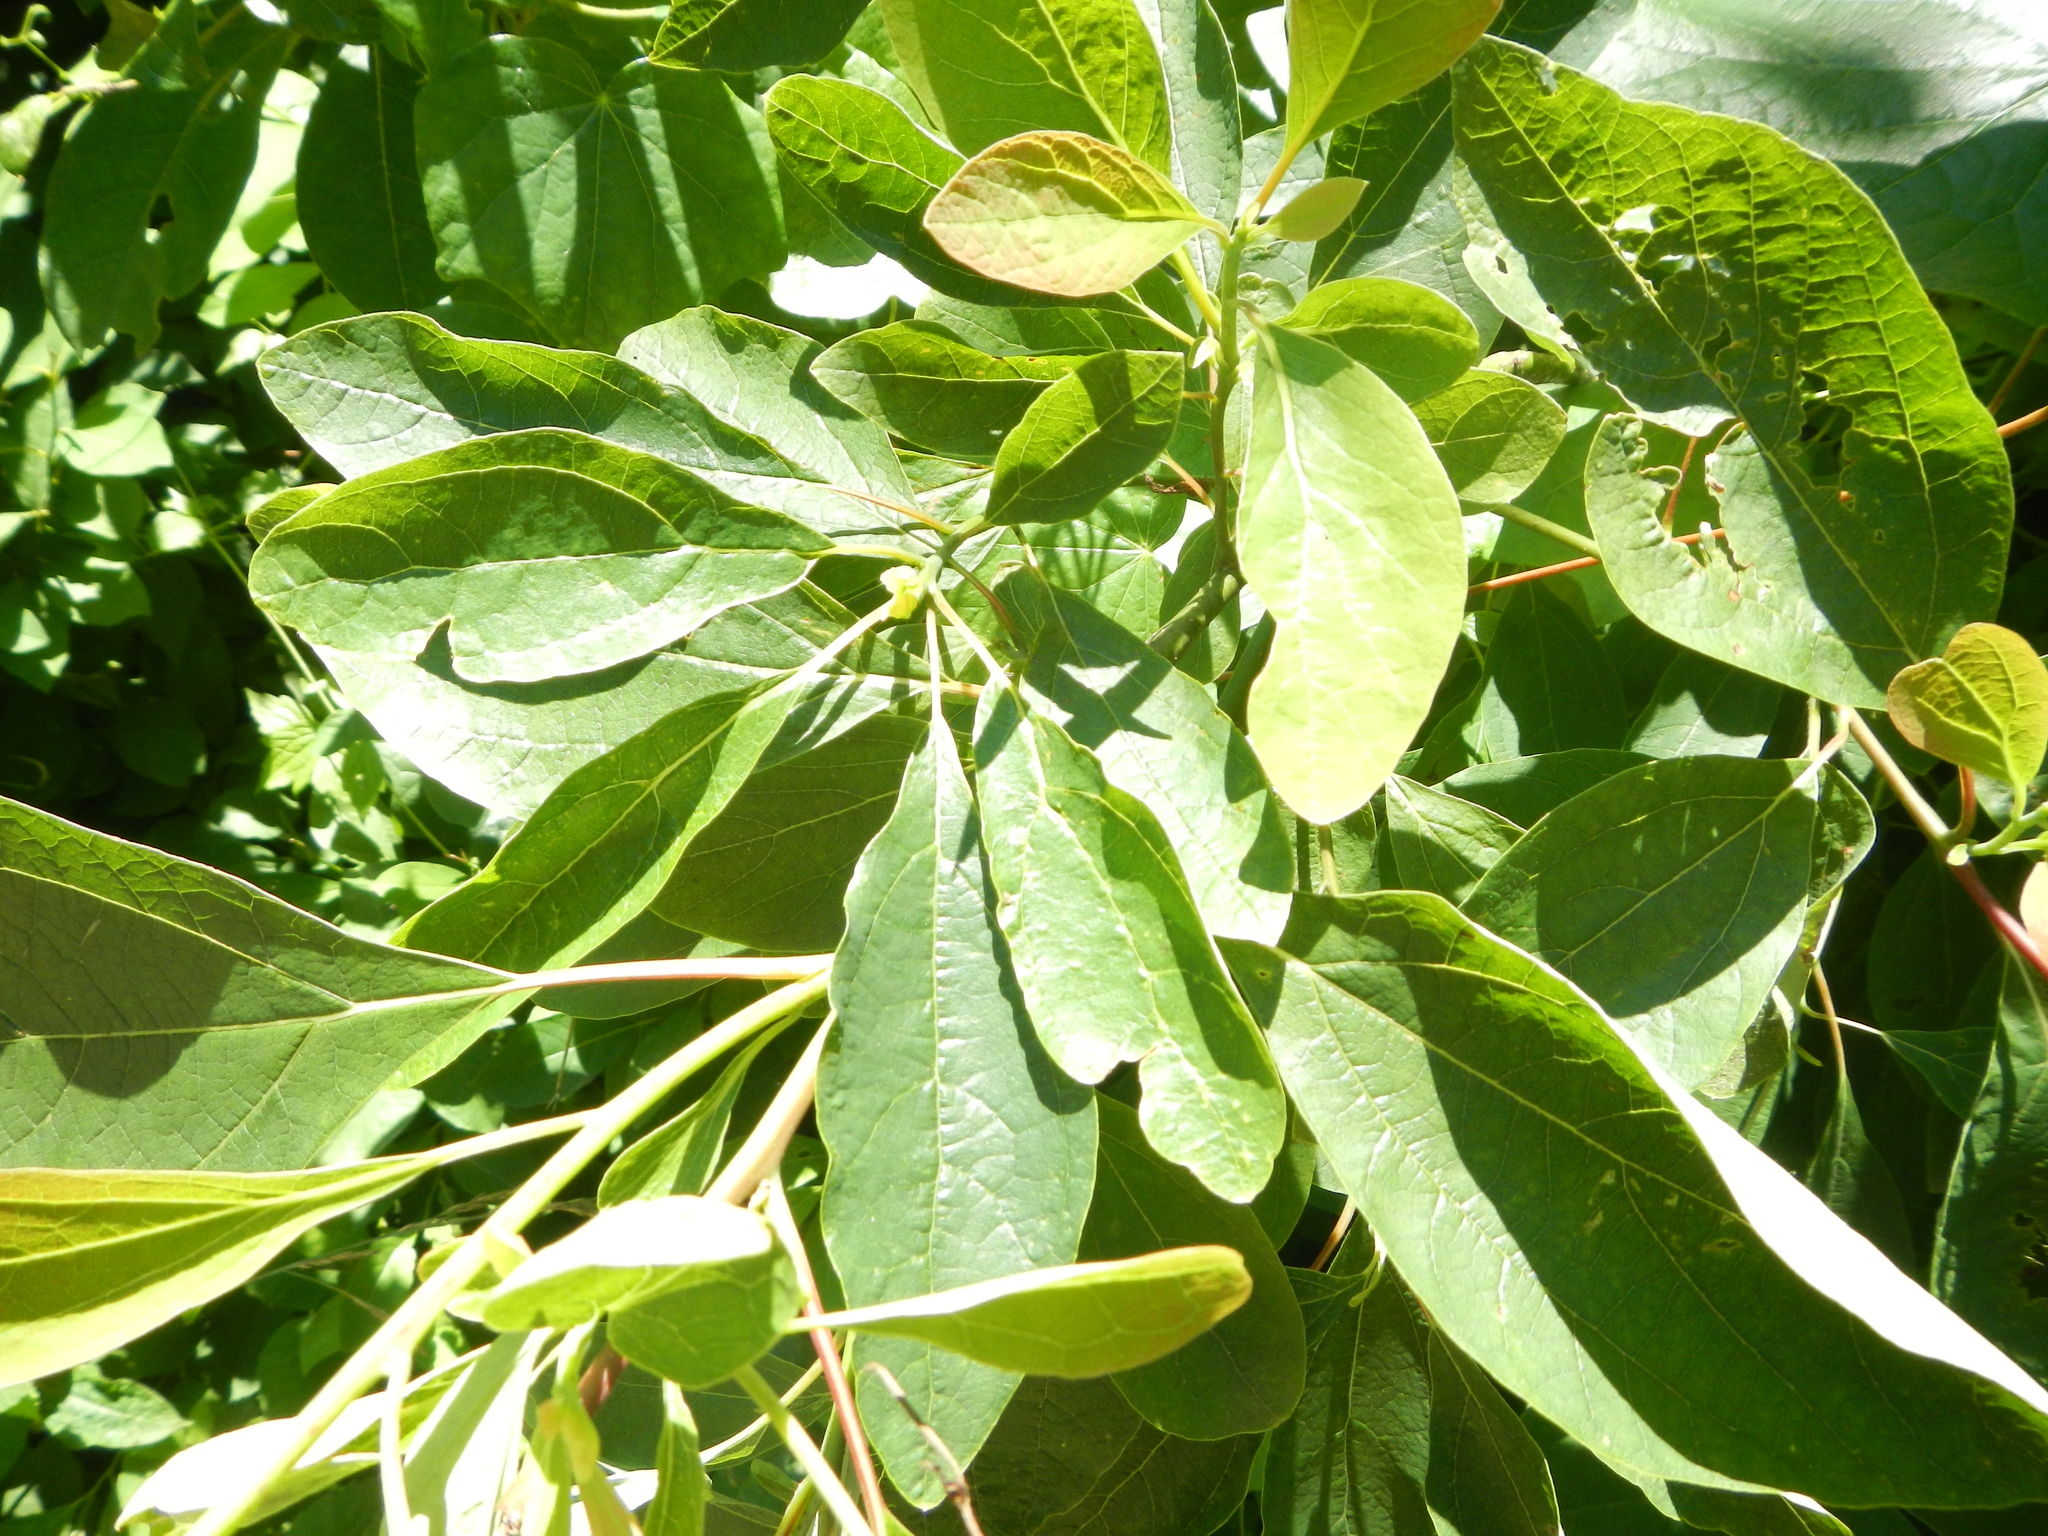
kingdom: Plantae
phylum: Tracheophyta
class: Magnoliopsida
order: Laurales
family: Lauraceae
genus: Sassafras
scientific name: Sassafras albidum
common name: Sassafras
